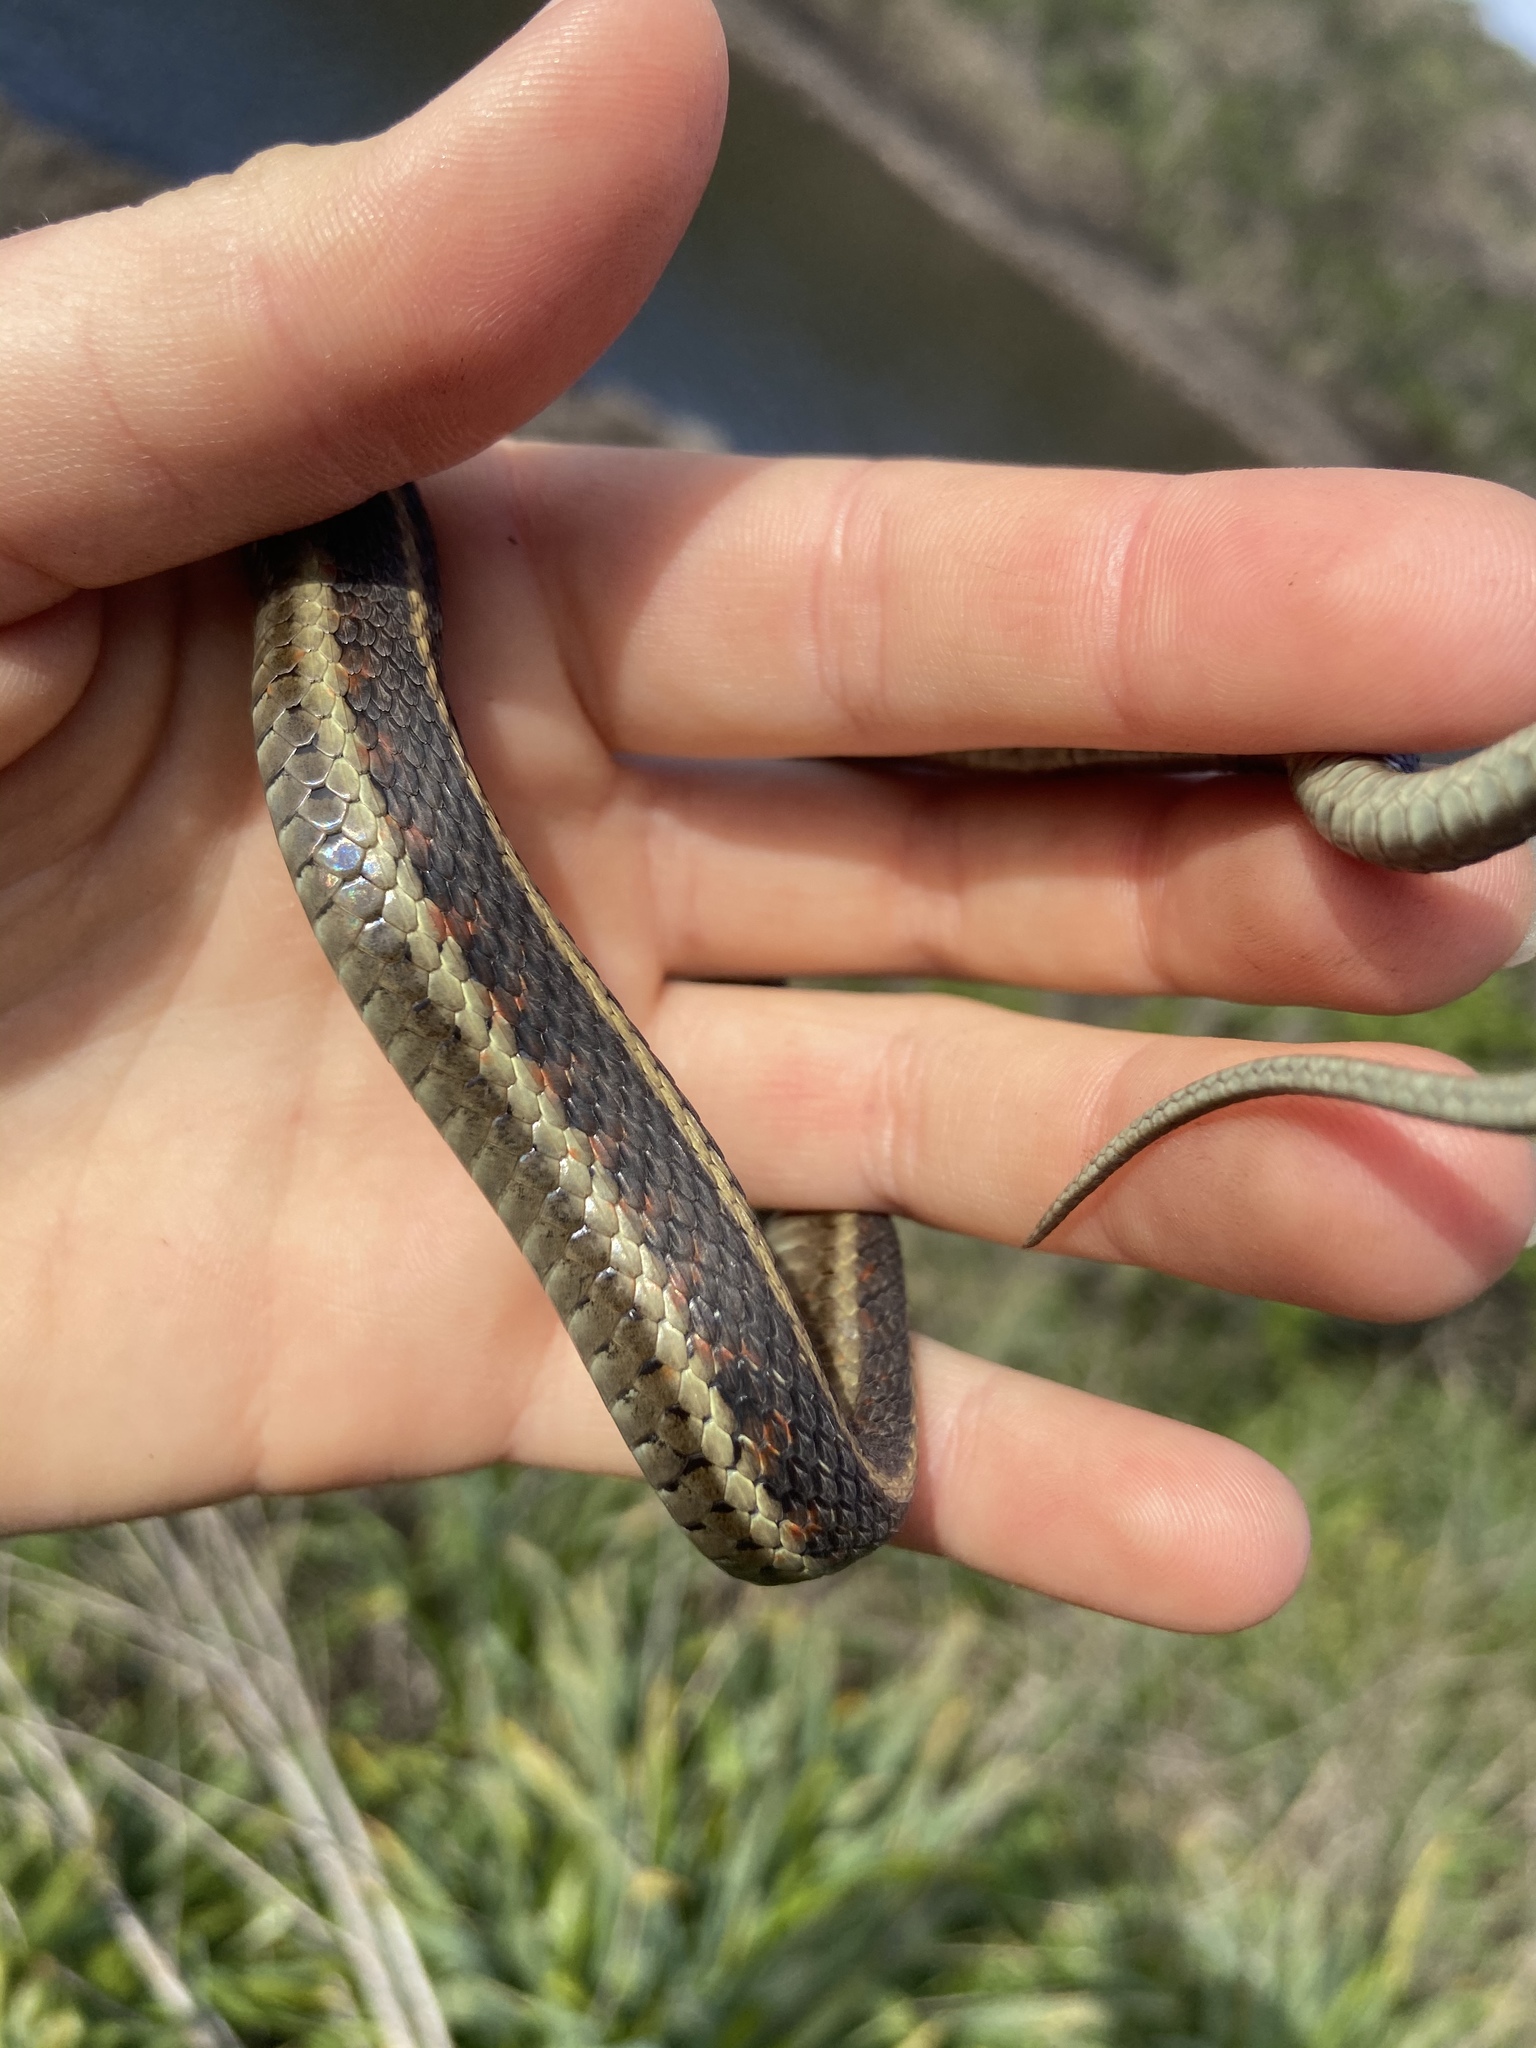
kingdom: Animalia
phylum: Chordata
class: Squamata
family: Colubridae
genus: Thamnophis
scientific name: Thamnophis elegans
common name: Western terrestrial garter snake
